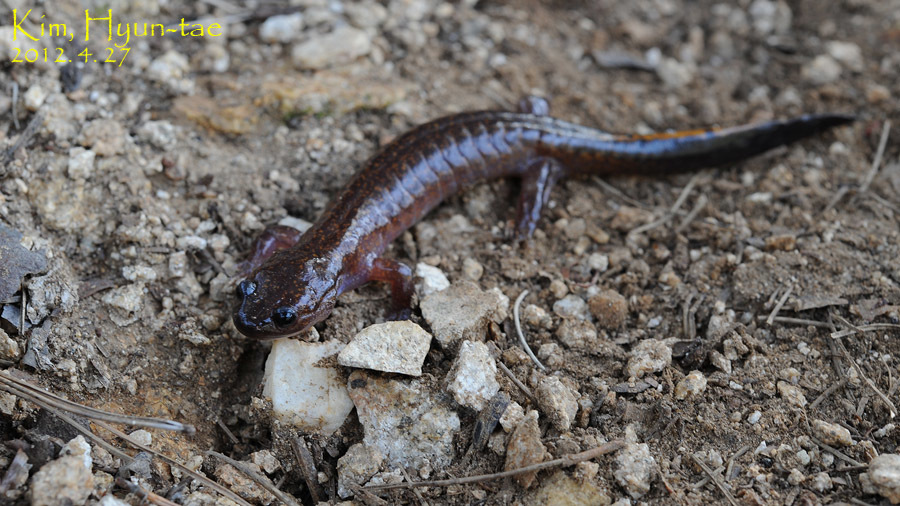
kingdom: Animalia
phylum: Chordata
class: Amphibia
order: Caudata
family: Hynobiidae
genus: Hynobius
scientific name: Hynobius leechii
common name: Gensan salamander
